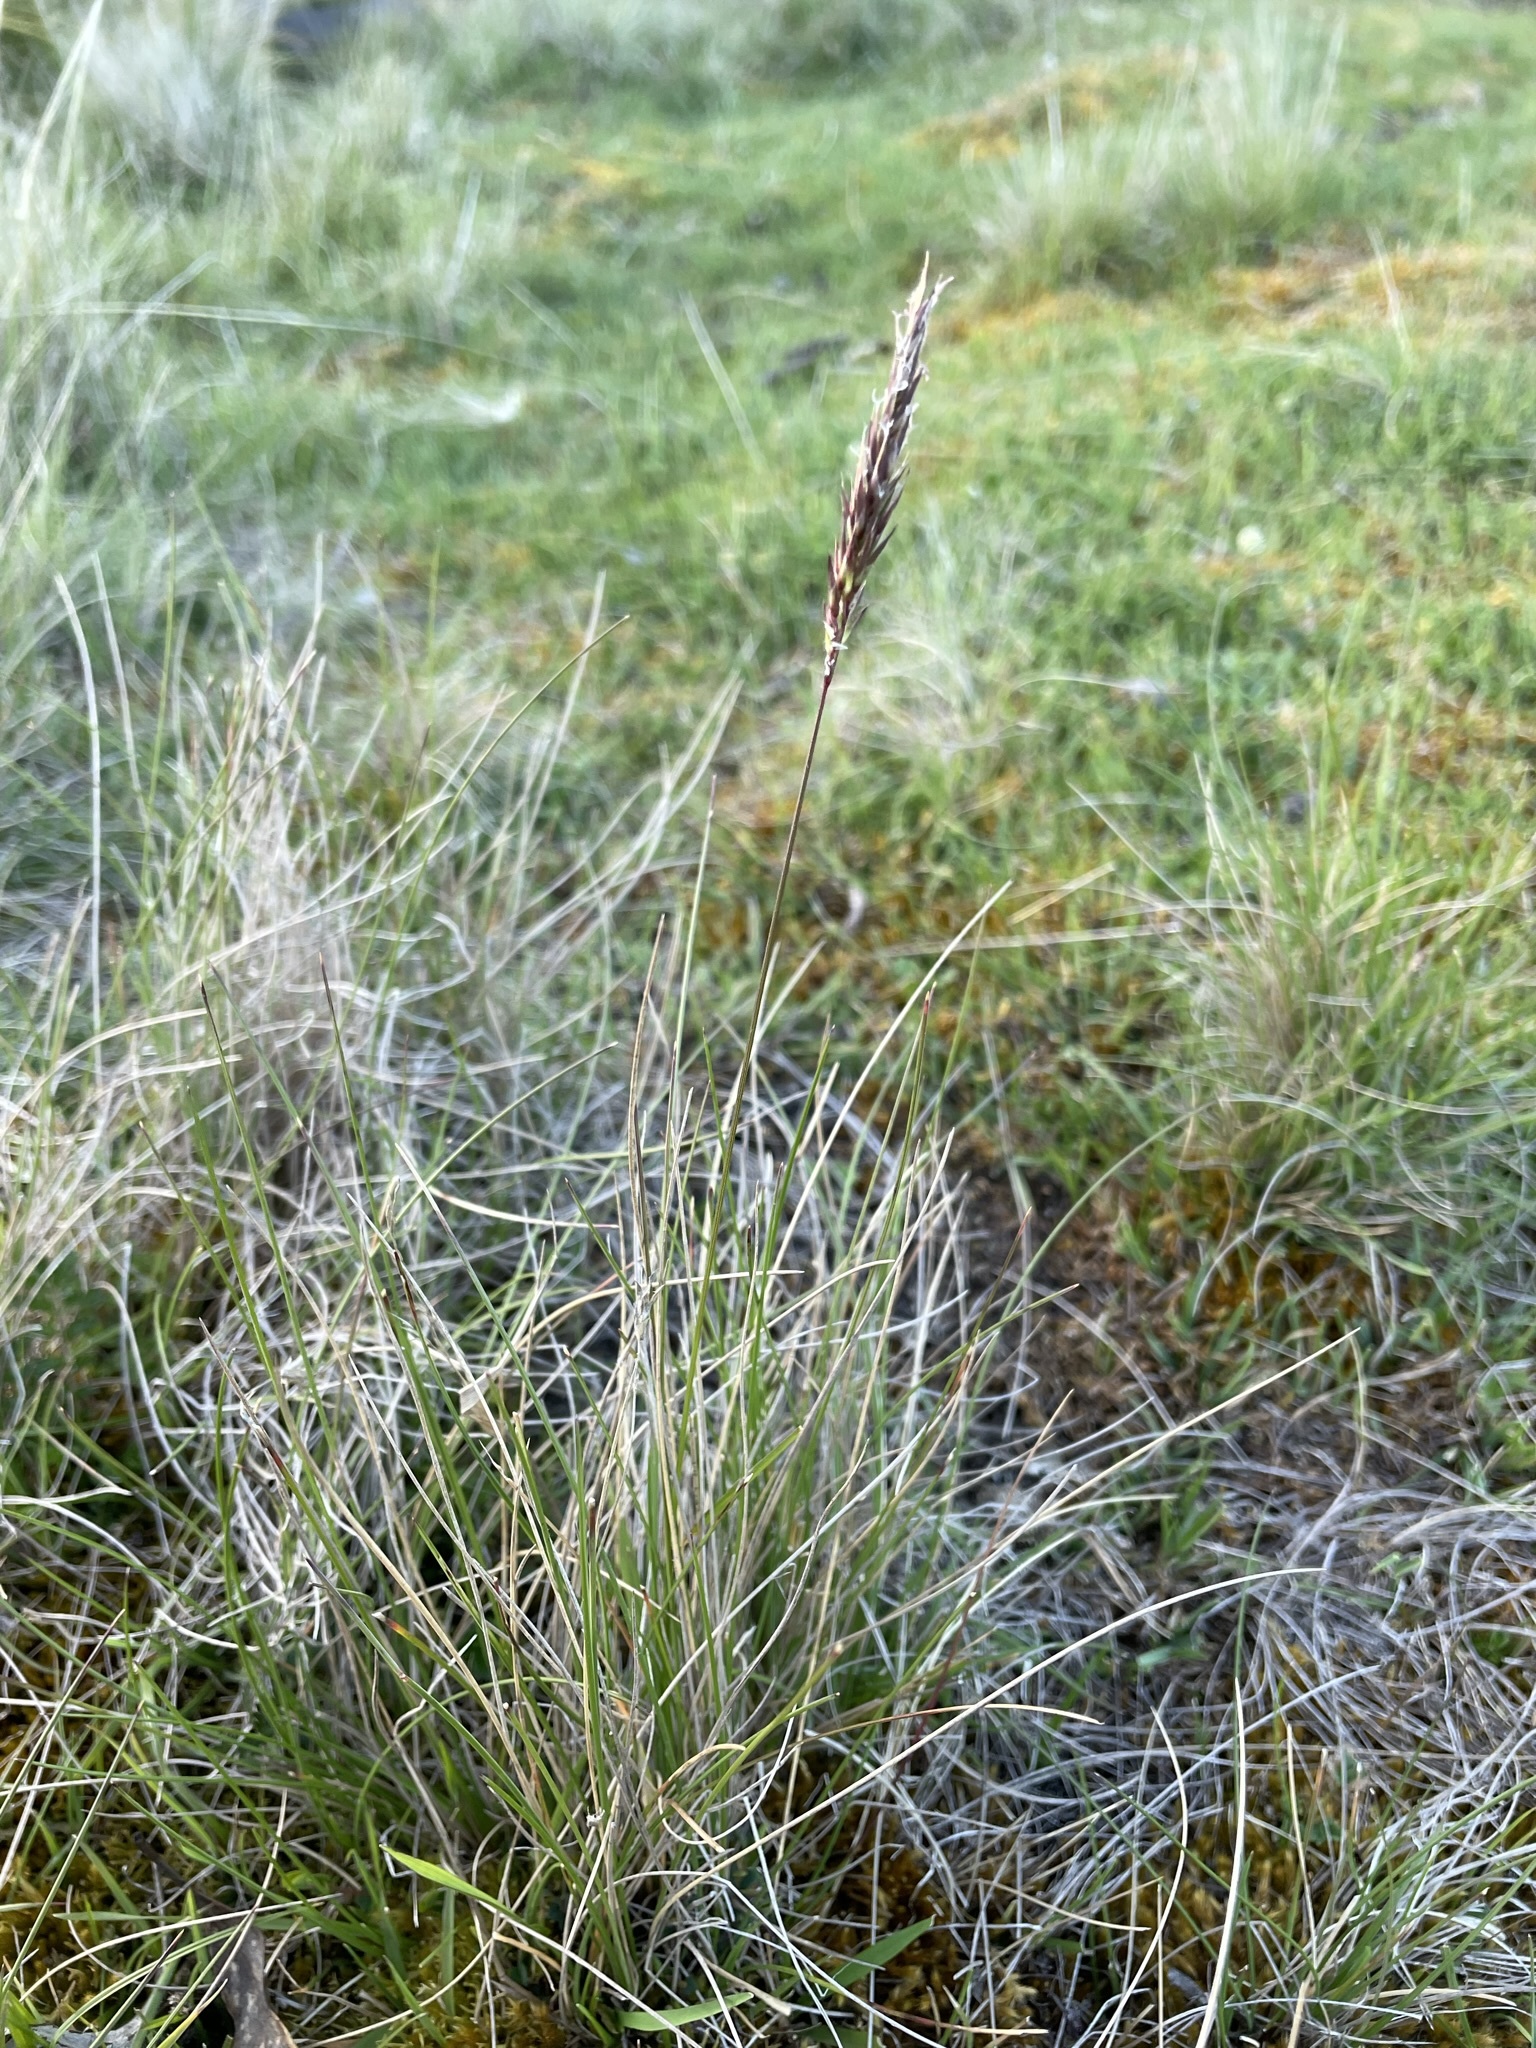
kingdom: Plantae
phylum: Tracheophyta
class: Liliopsida
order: Poales
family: Poaceae
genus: Anthoxanthum
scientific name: Anthoxanthum odoratum
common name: Sweet vernalgrass
